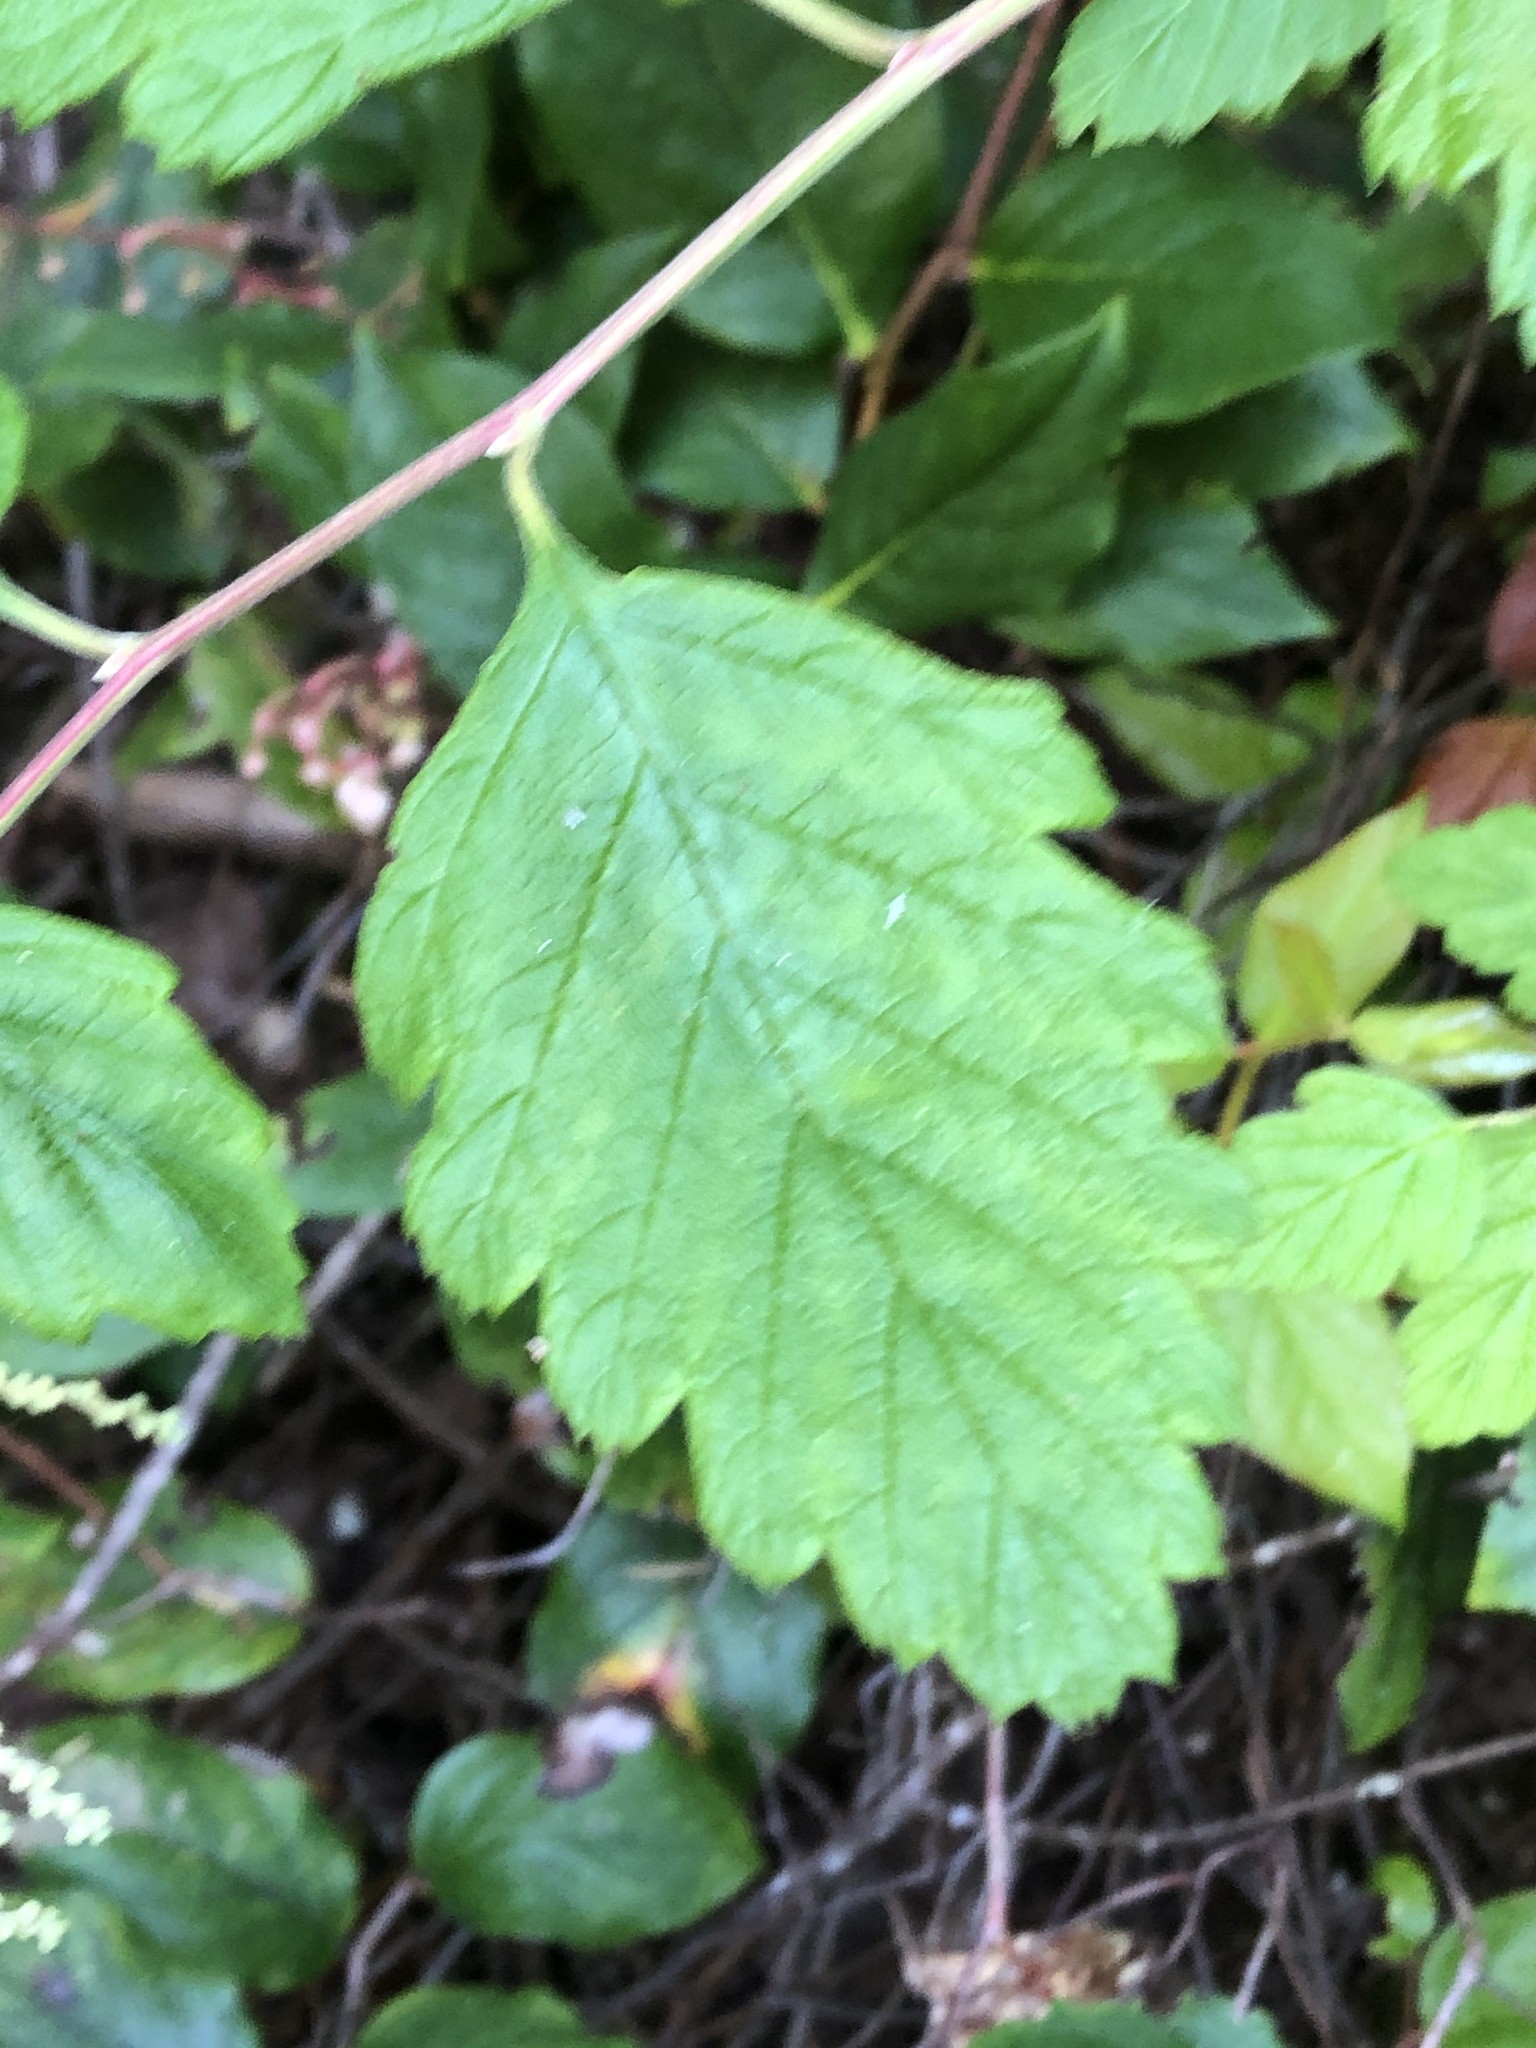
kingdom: Plantae
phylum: Tracheophyta
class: Magnoliopsida
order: Rosales
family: Rosaceae
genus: Holodiscus
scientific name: Holodiscus discolor
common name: Oceanspray
